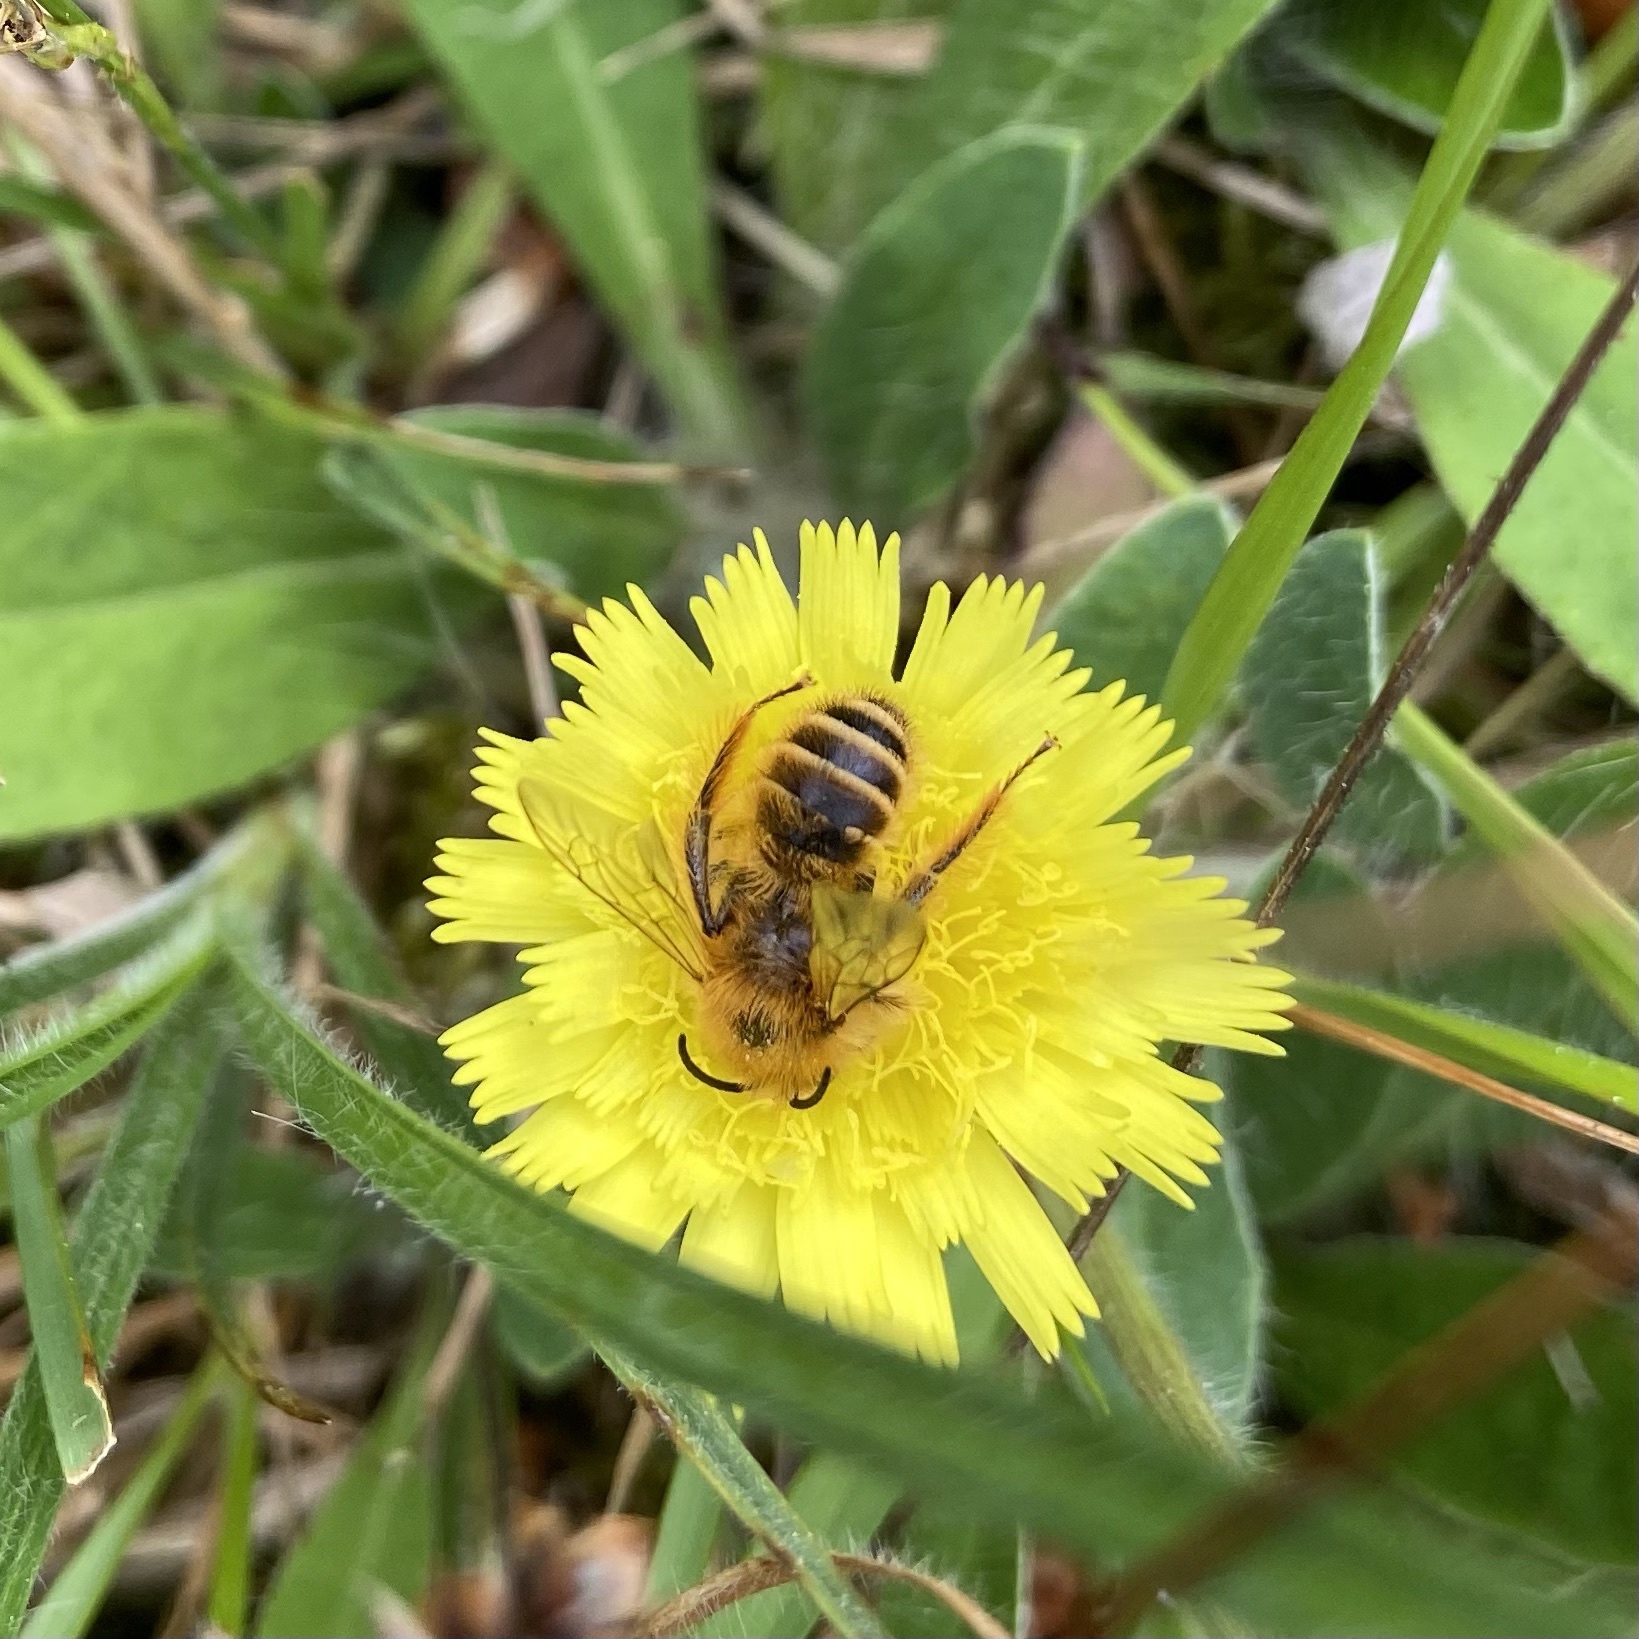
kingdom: Animalia
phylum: Arthropoda
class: Insecta
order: Hymenoptera
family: Melittidae
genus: Dasypoda
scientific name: Dasypoda hirtipes
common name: Pantaloon bee
